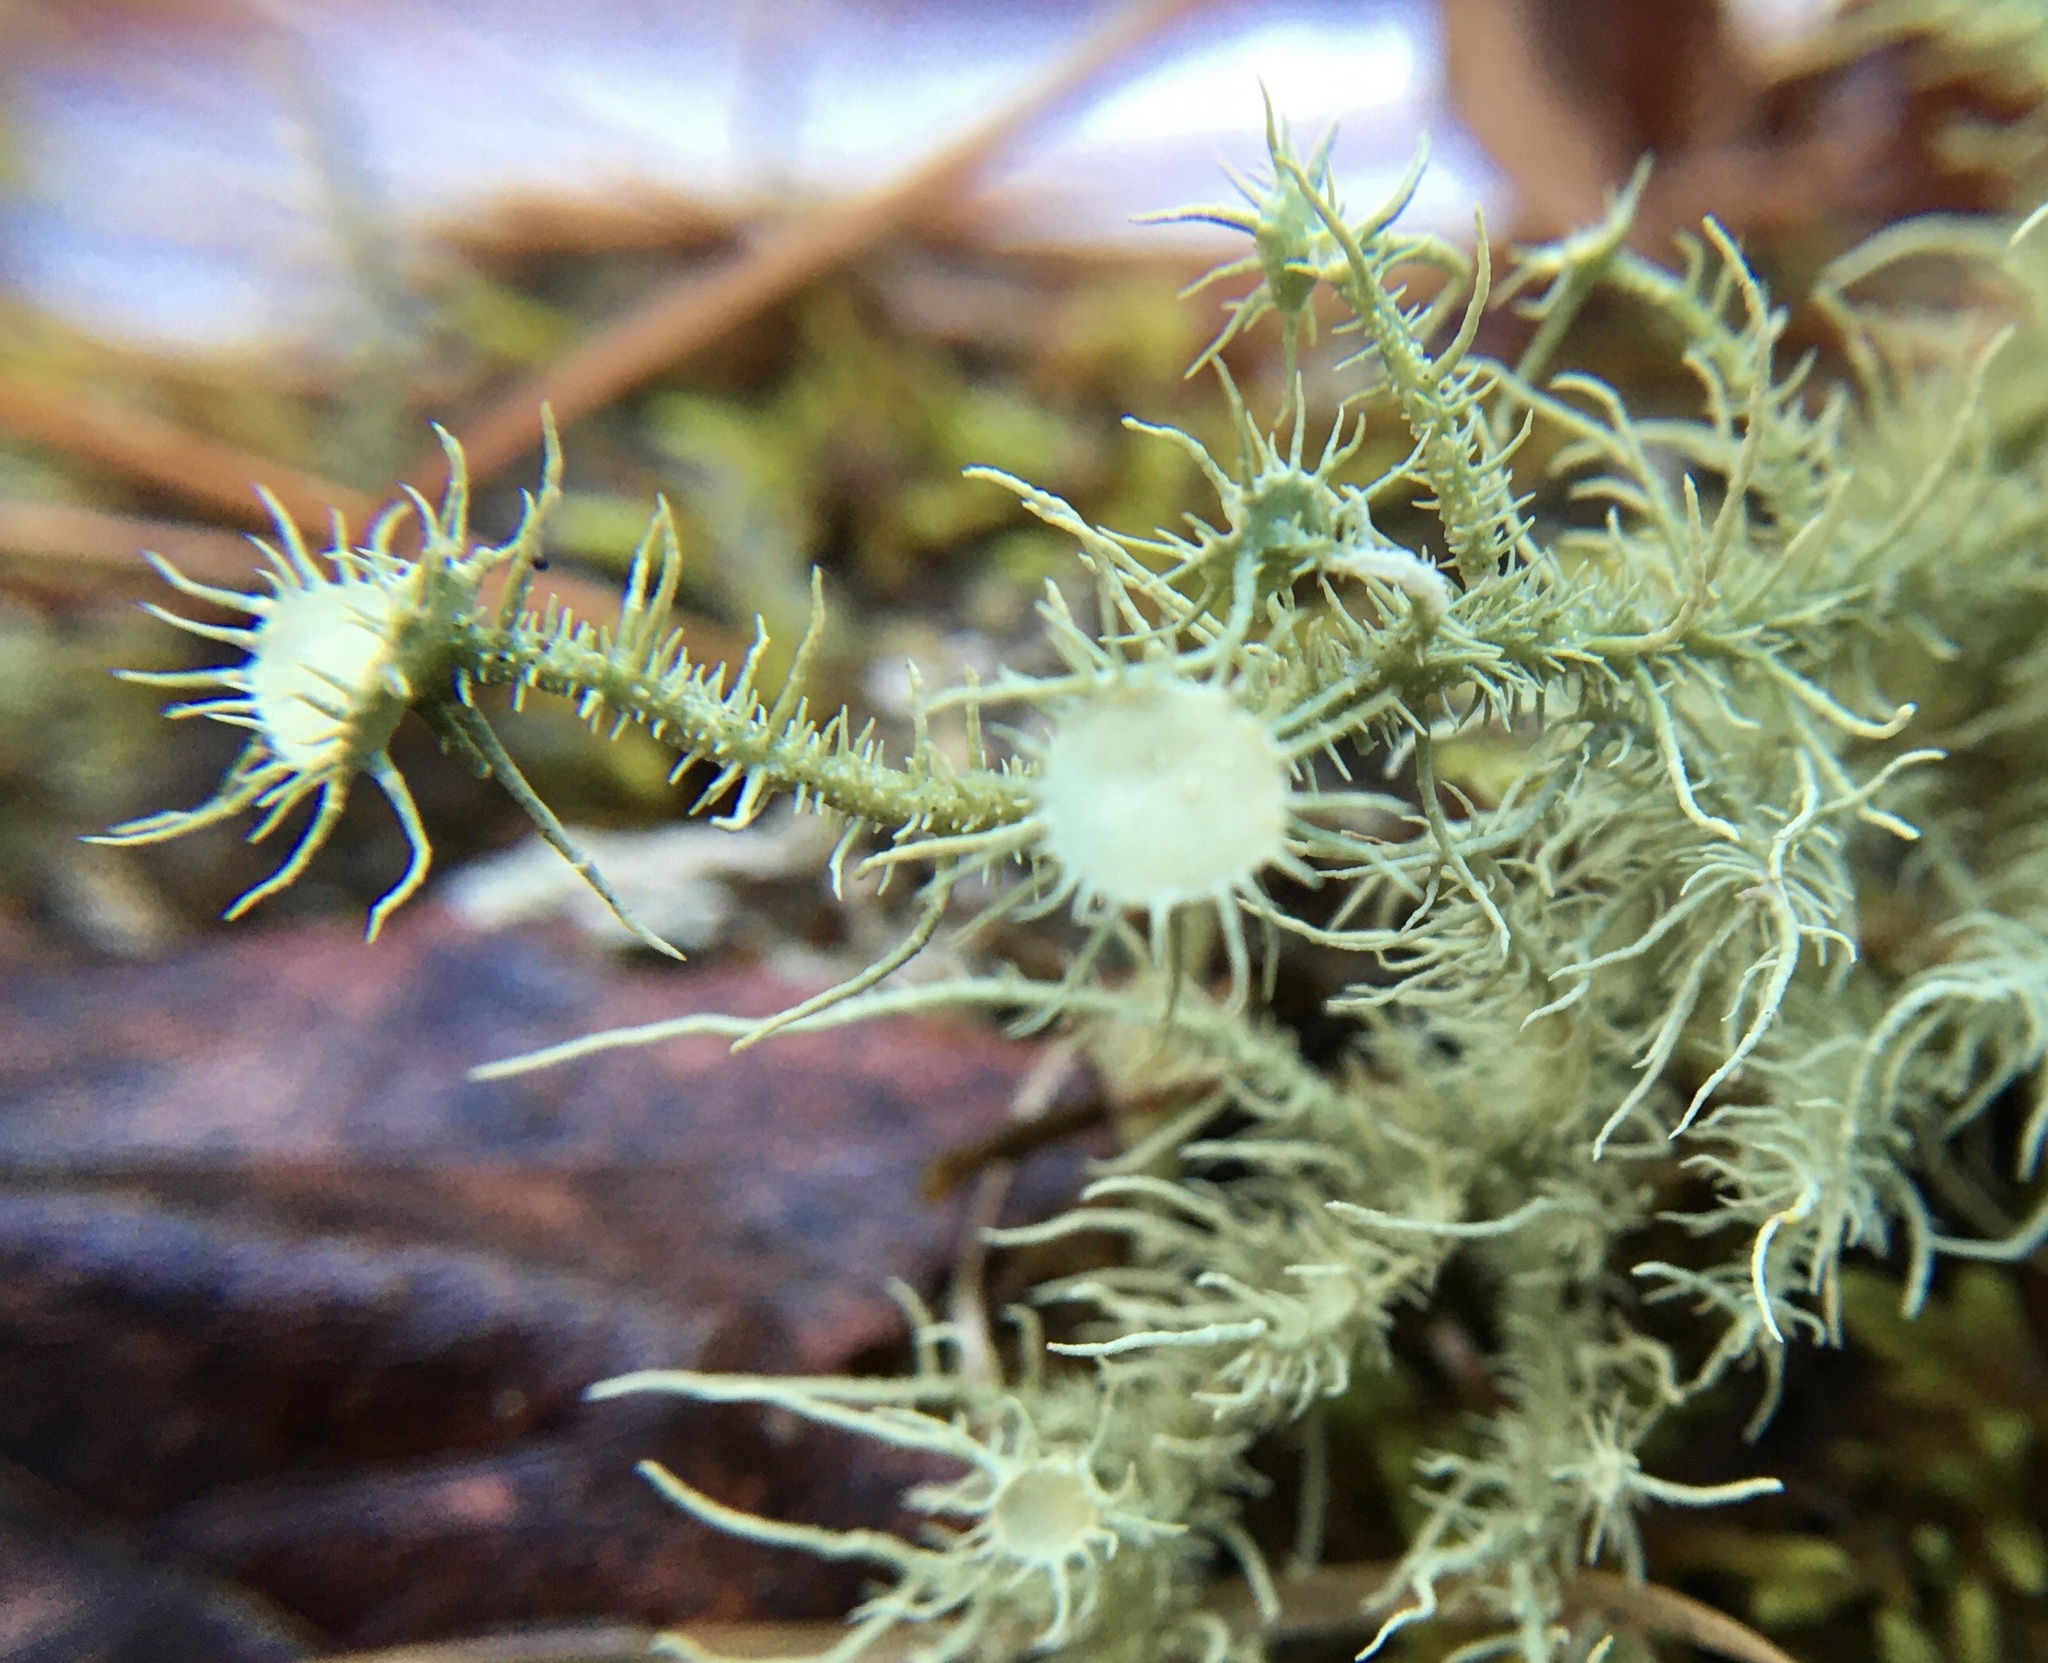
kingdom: Fungi
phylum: Ascomycota
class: Lecanoromycetes
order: Lecanorales
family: Parmeliaceae
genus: Usnea
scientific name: Usnea strigosa
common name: Bushy beard lichen
